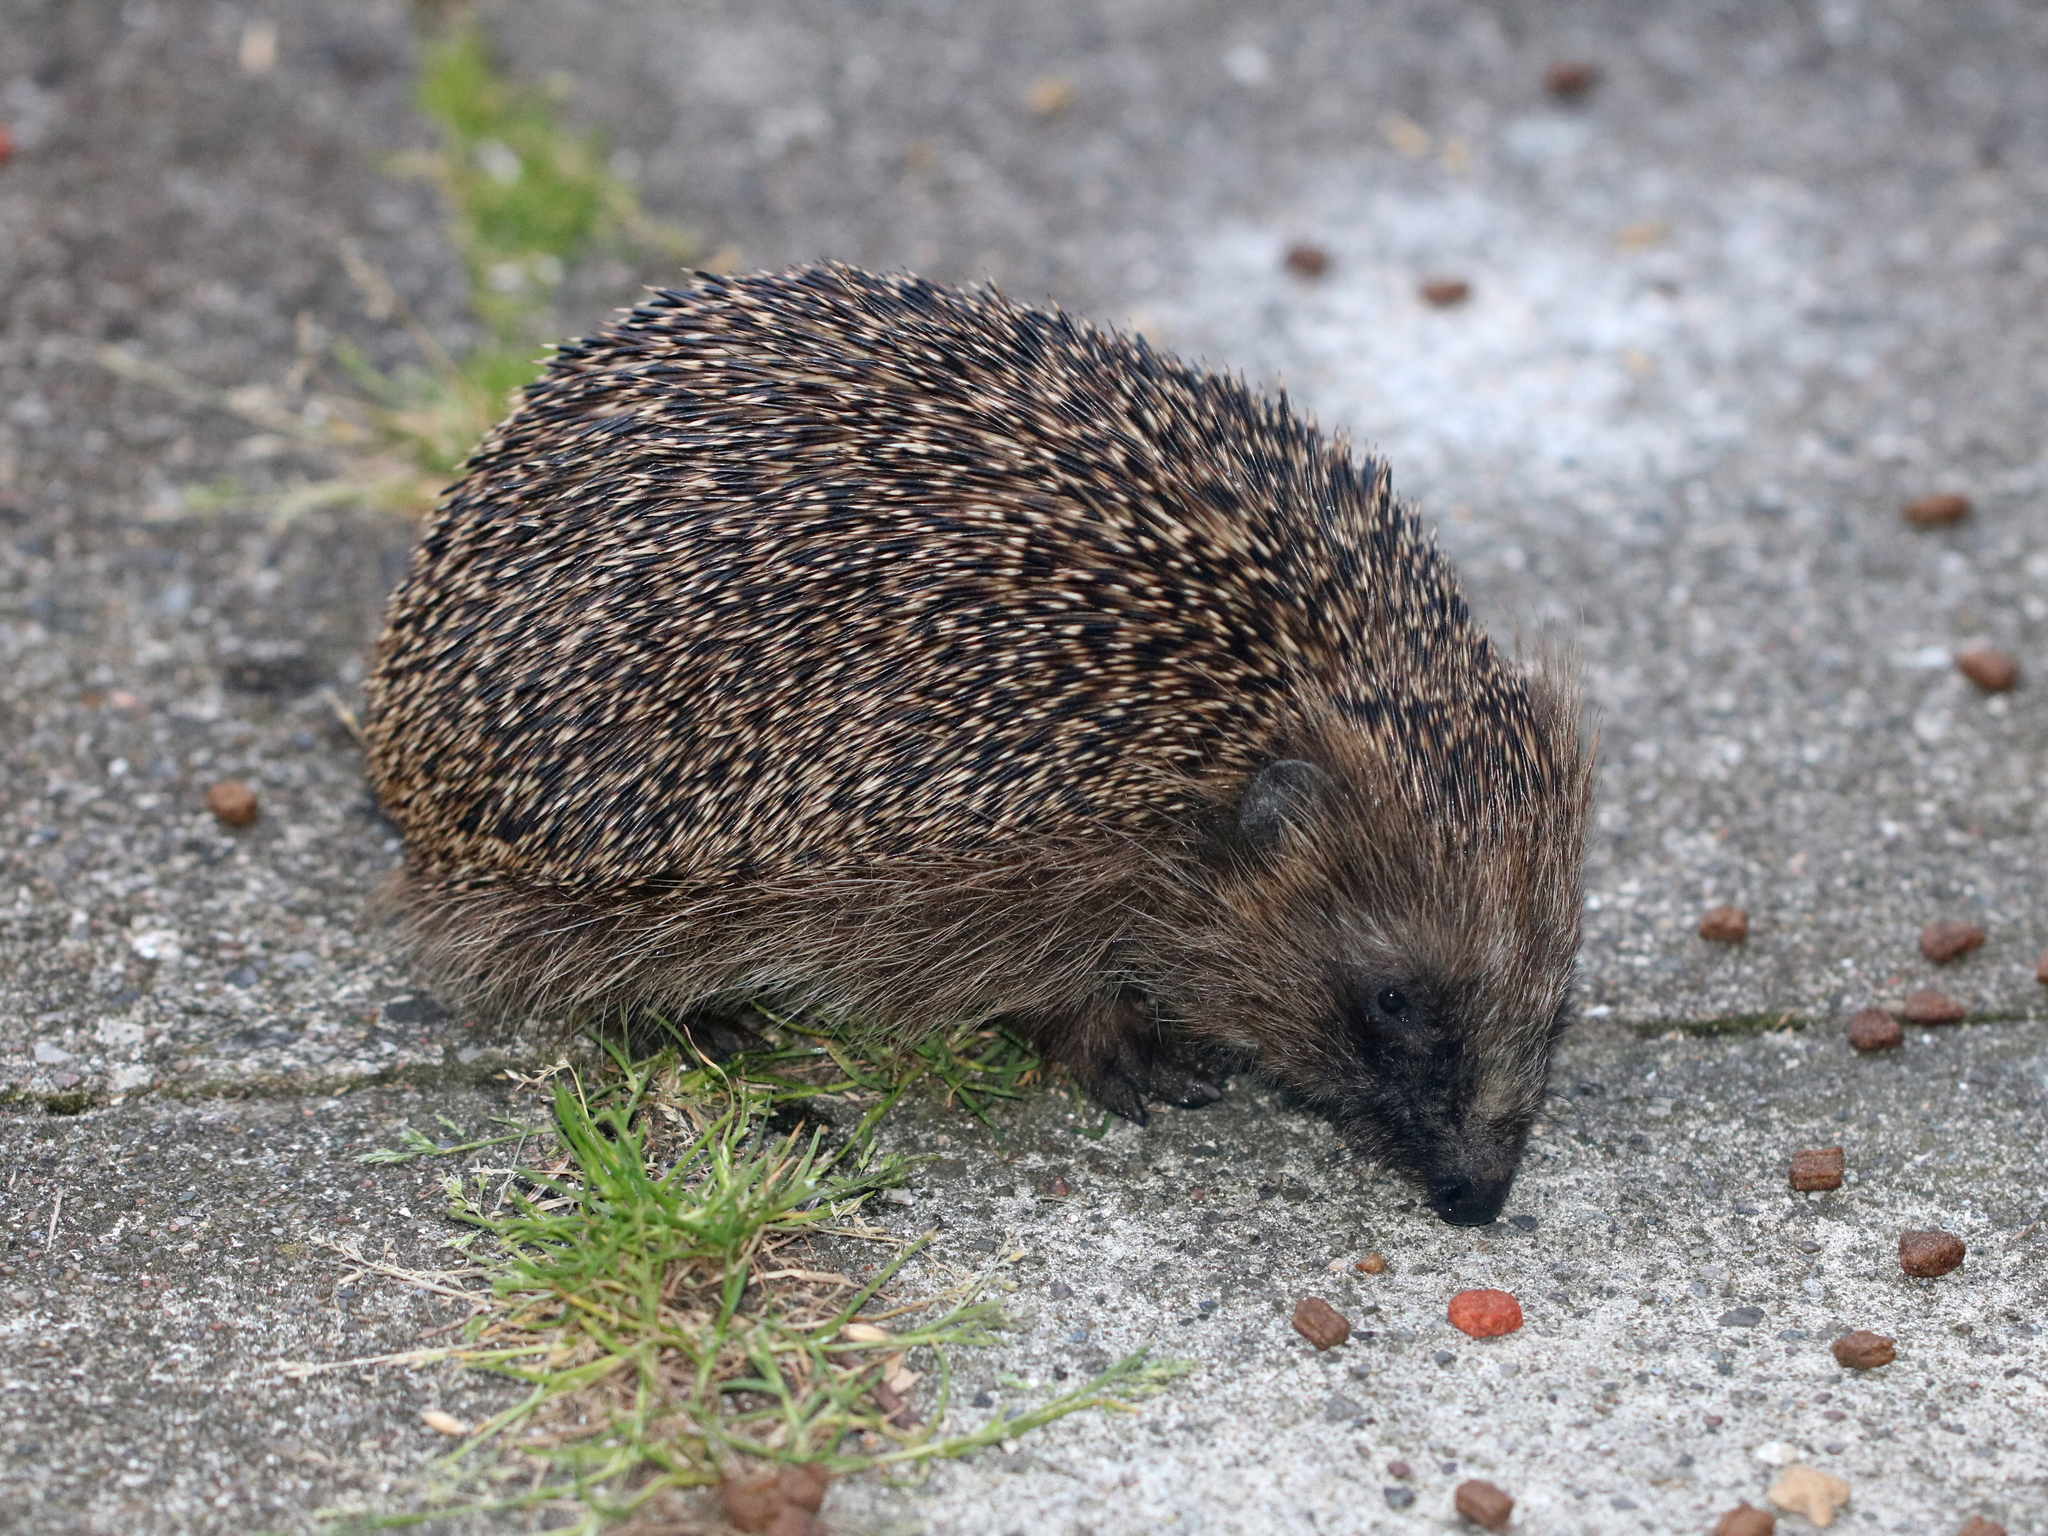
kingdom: Animalia
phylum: Chordata
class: Mammalia
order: Erinaceomorpha
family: Erinaceidae
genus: Erinaceus
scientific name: Erinaceus europaeus
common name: West european hedgehog
